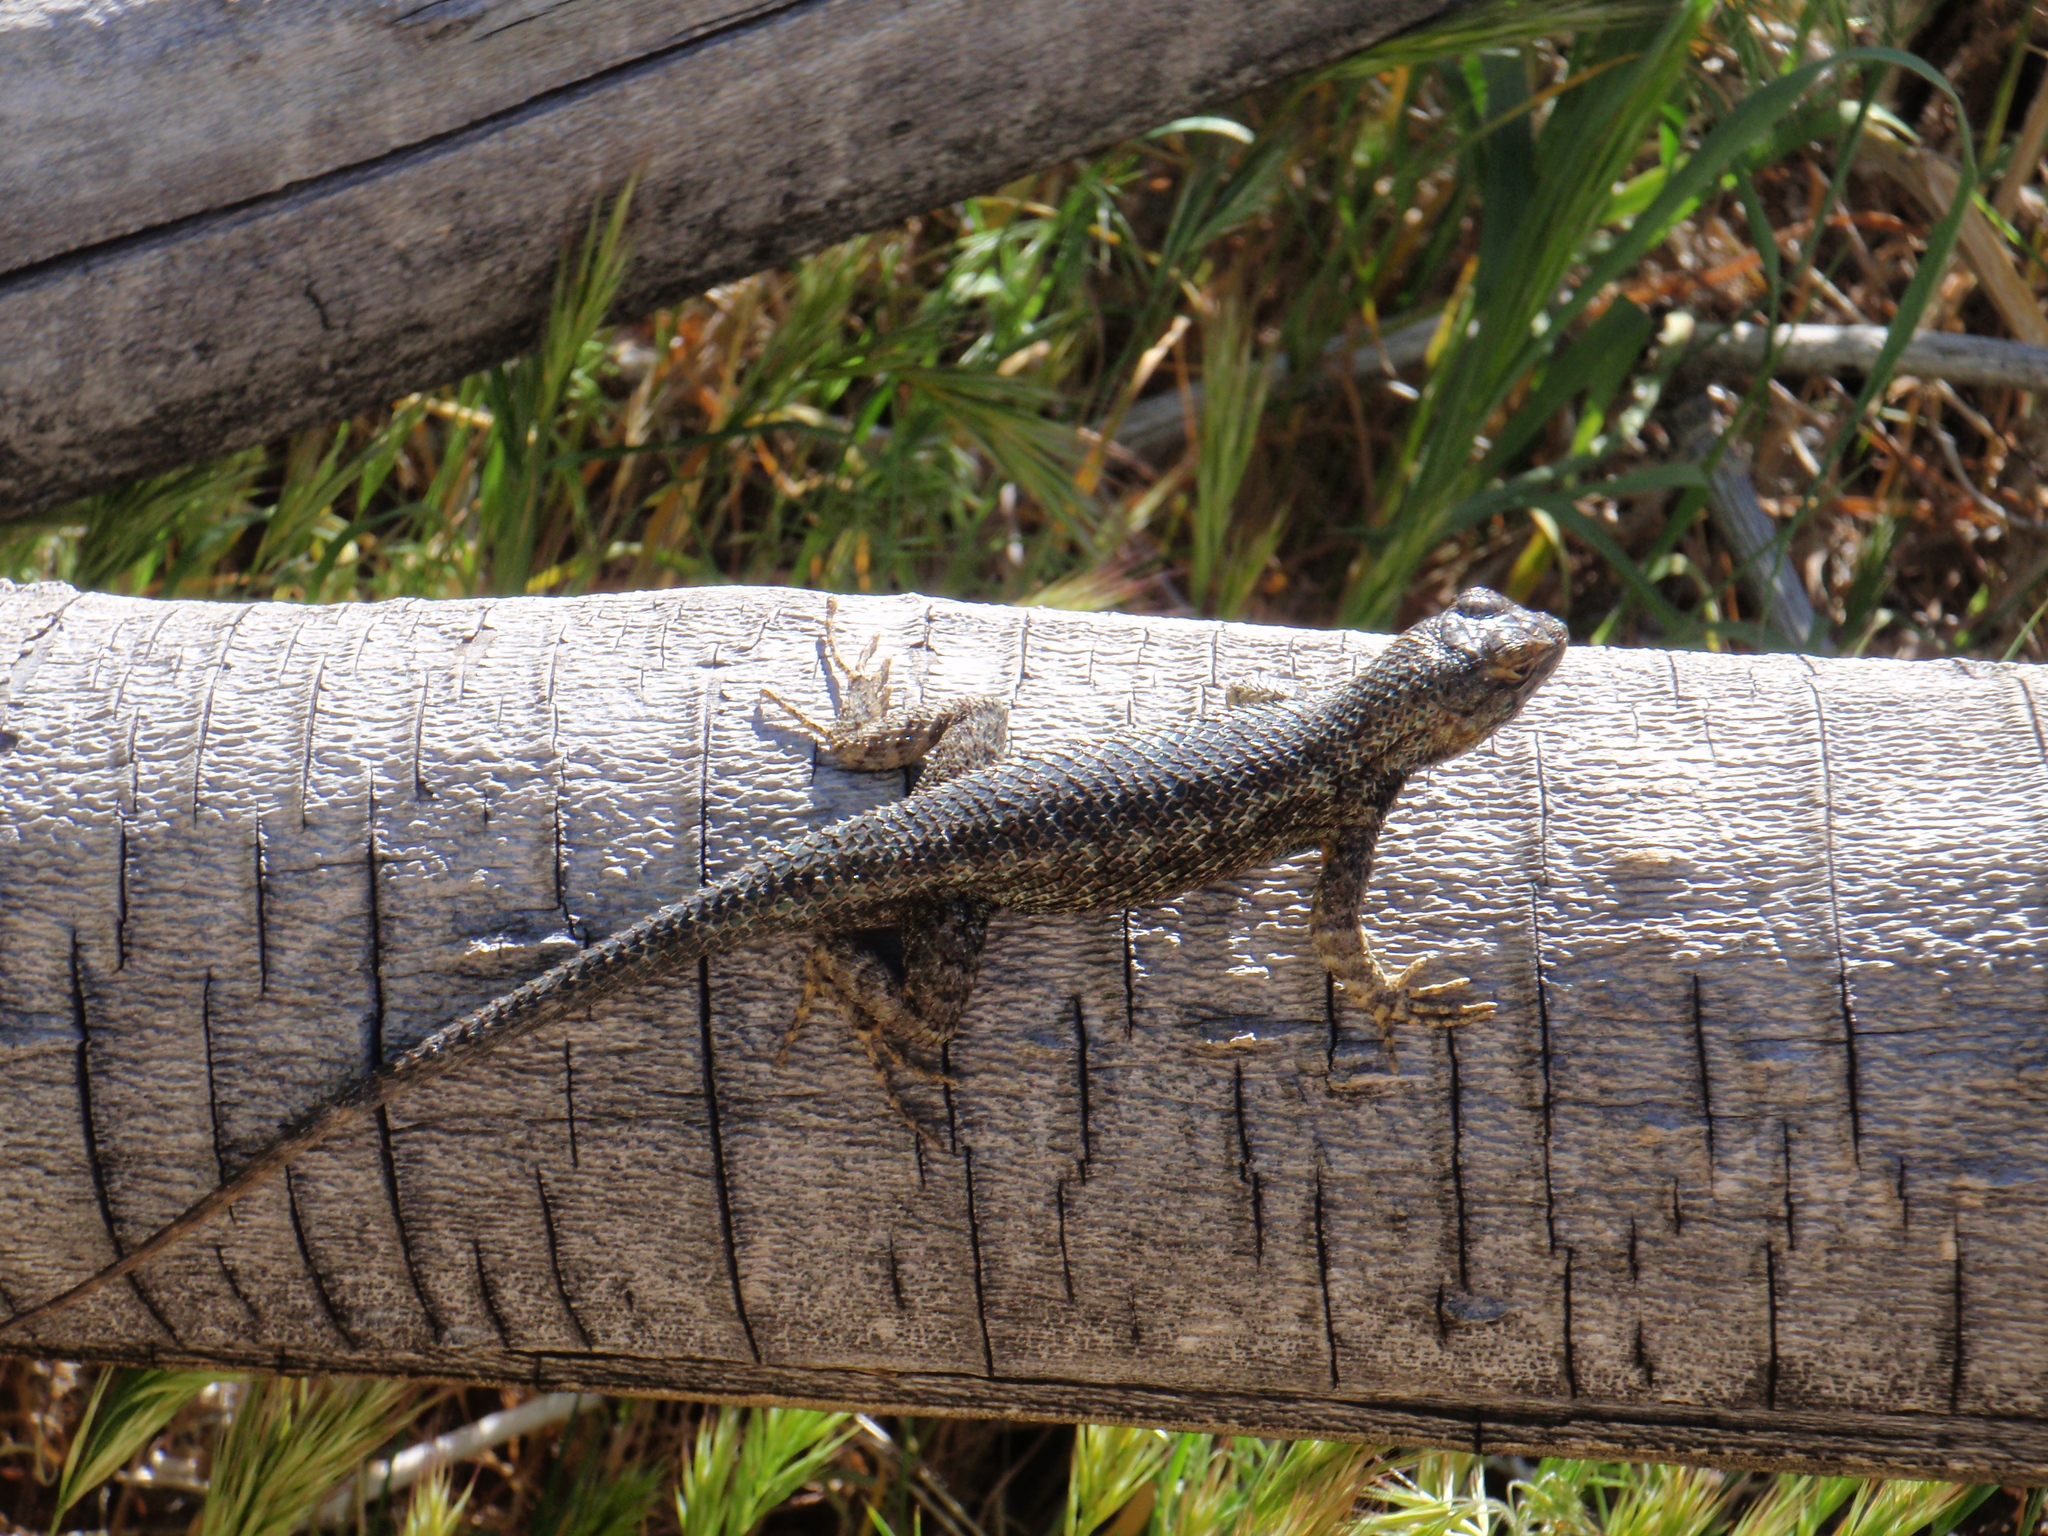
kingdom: Animalia
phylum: Chordata
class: Squamata
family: Phrynosomatidae
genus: Sceloporus
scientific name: Sceloporus occidentalis
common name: Western fence lizard
